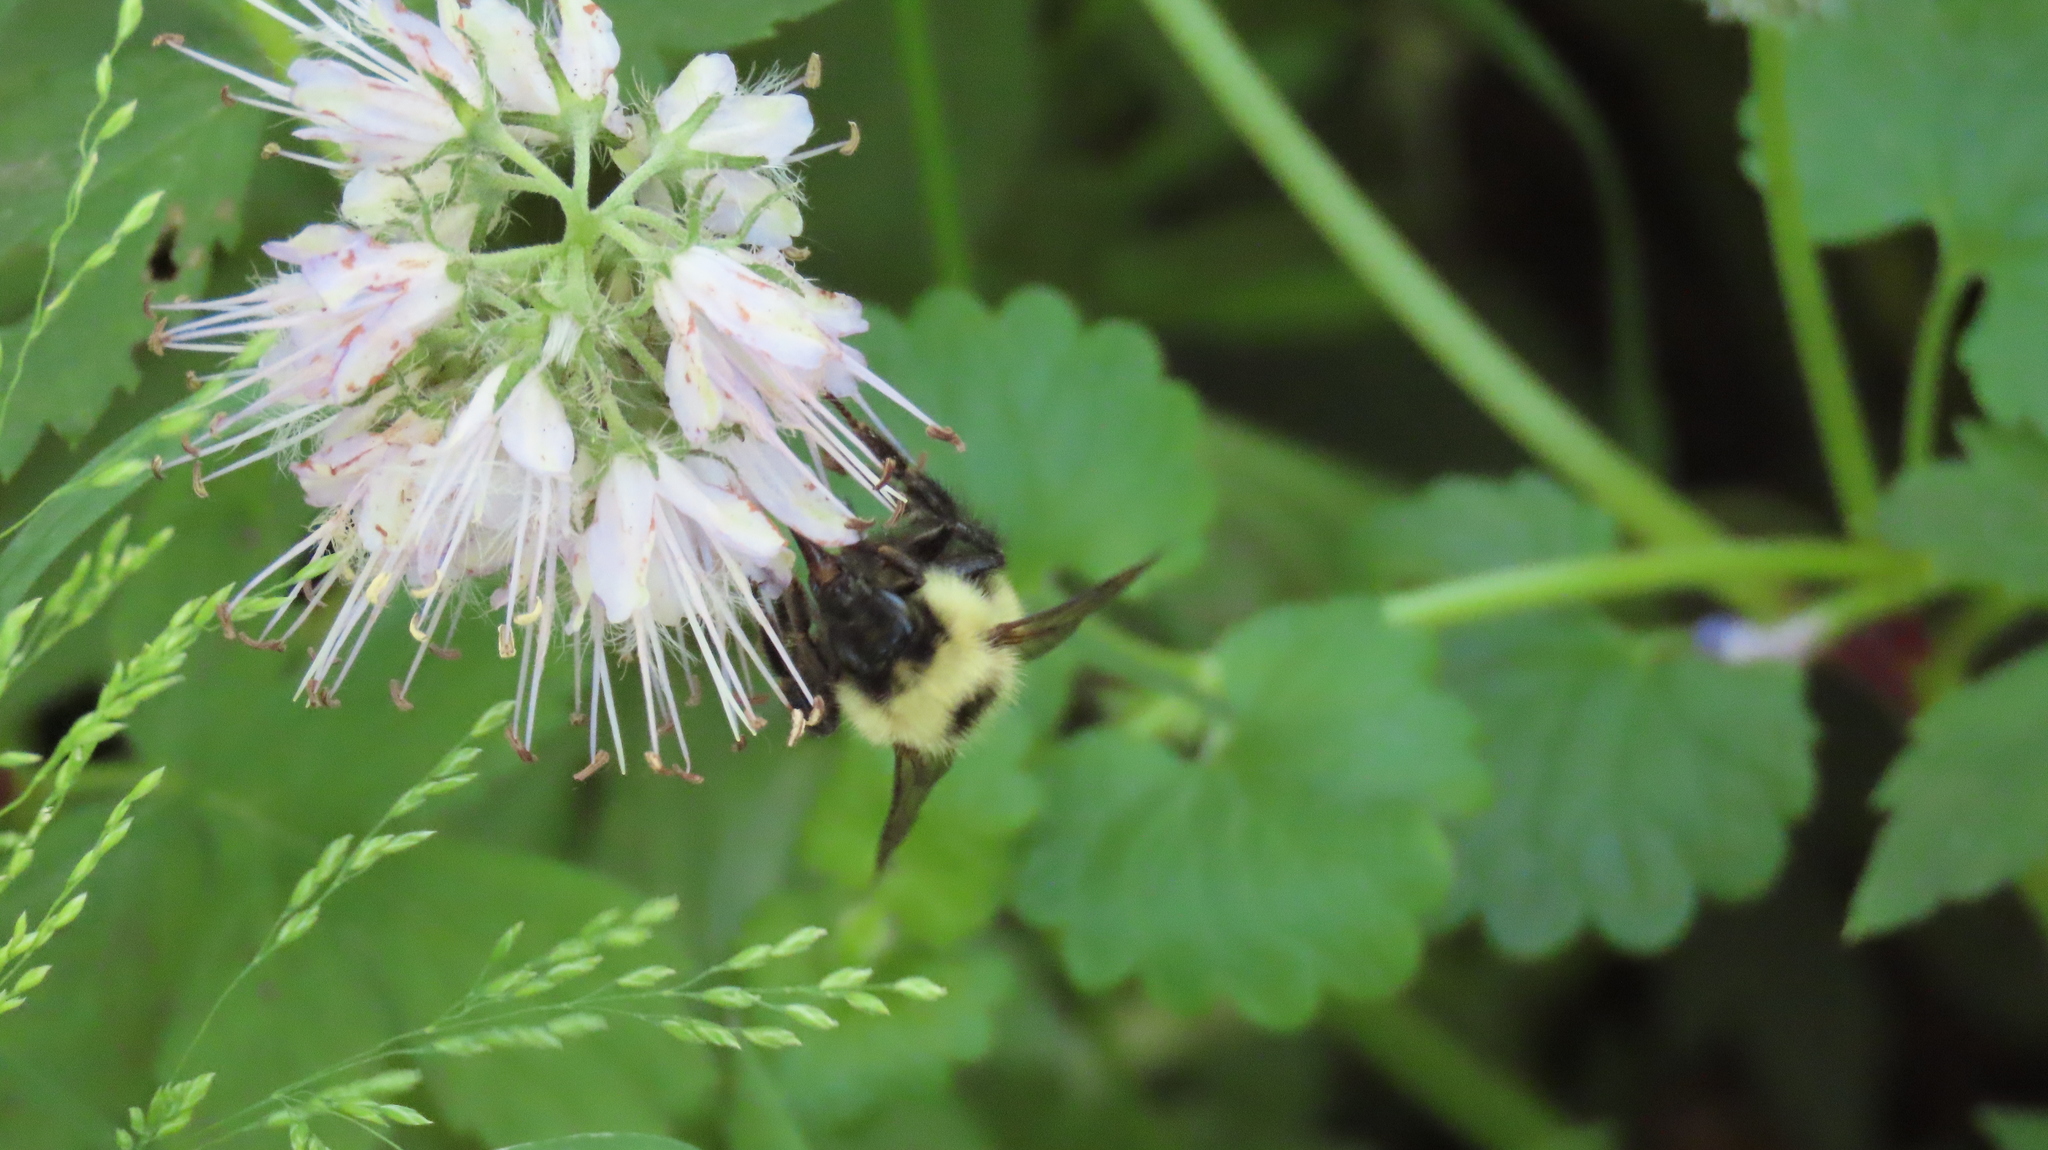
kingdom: Animalia
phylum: Arthropoda
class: Insecta
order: Hymenoptera
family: Apidae
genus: Bombus
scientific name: Bombus vagans
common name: Half-black bumble bee
